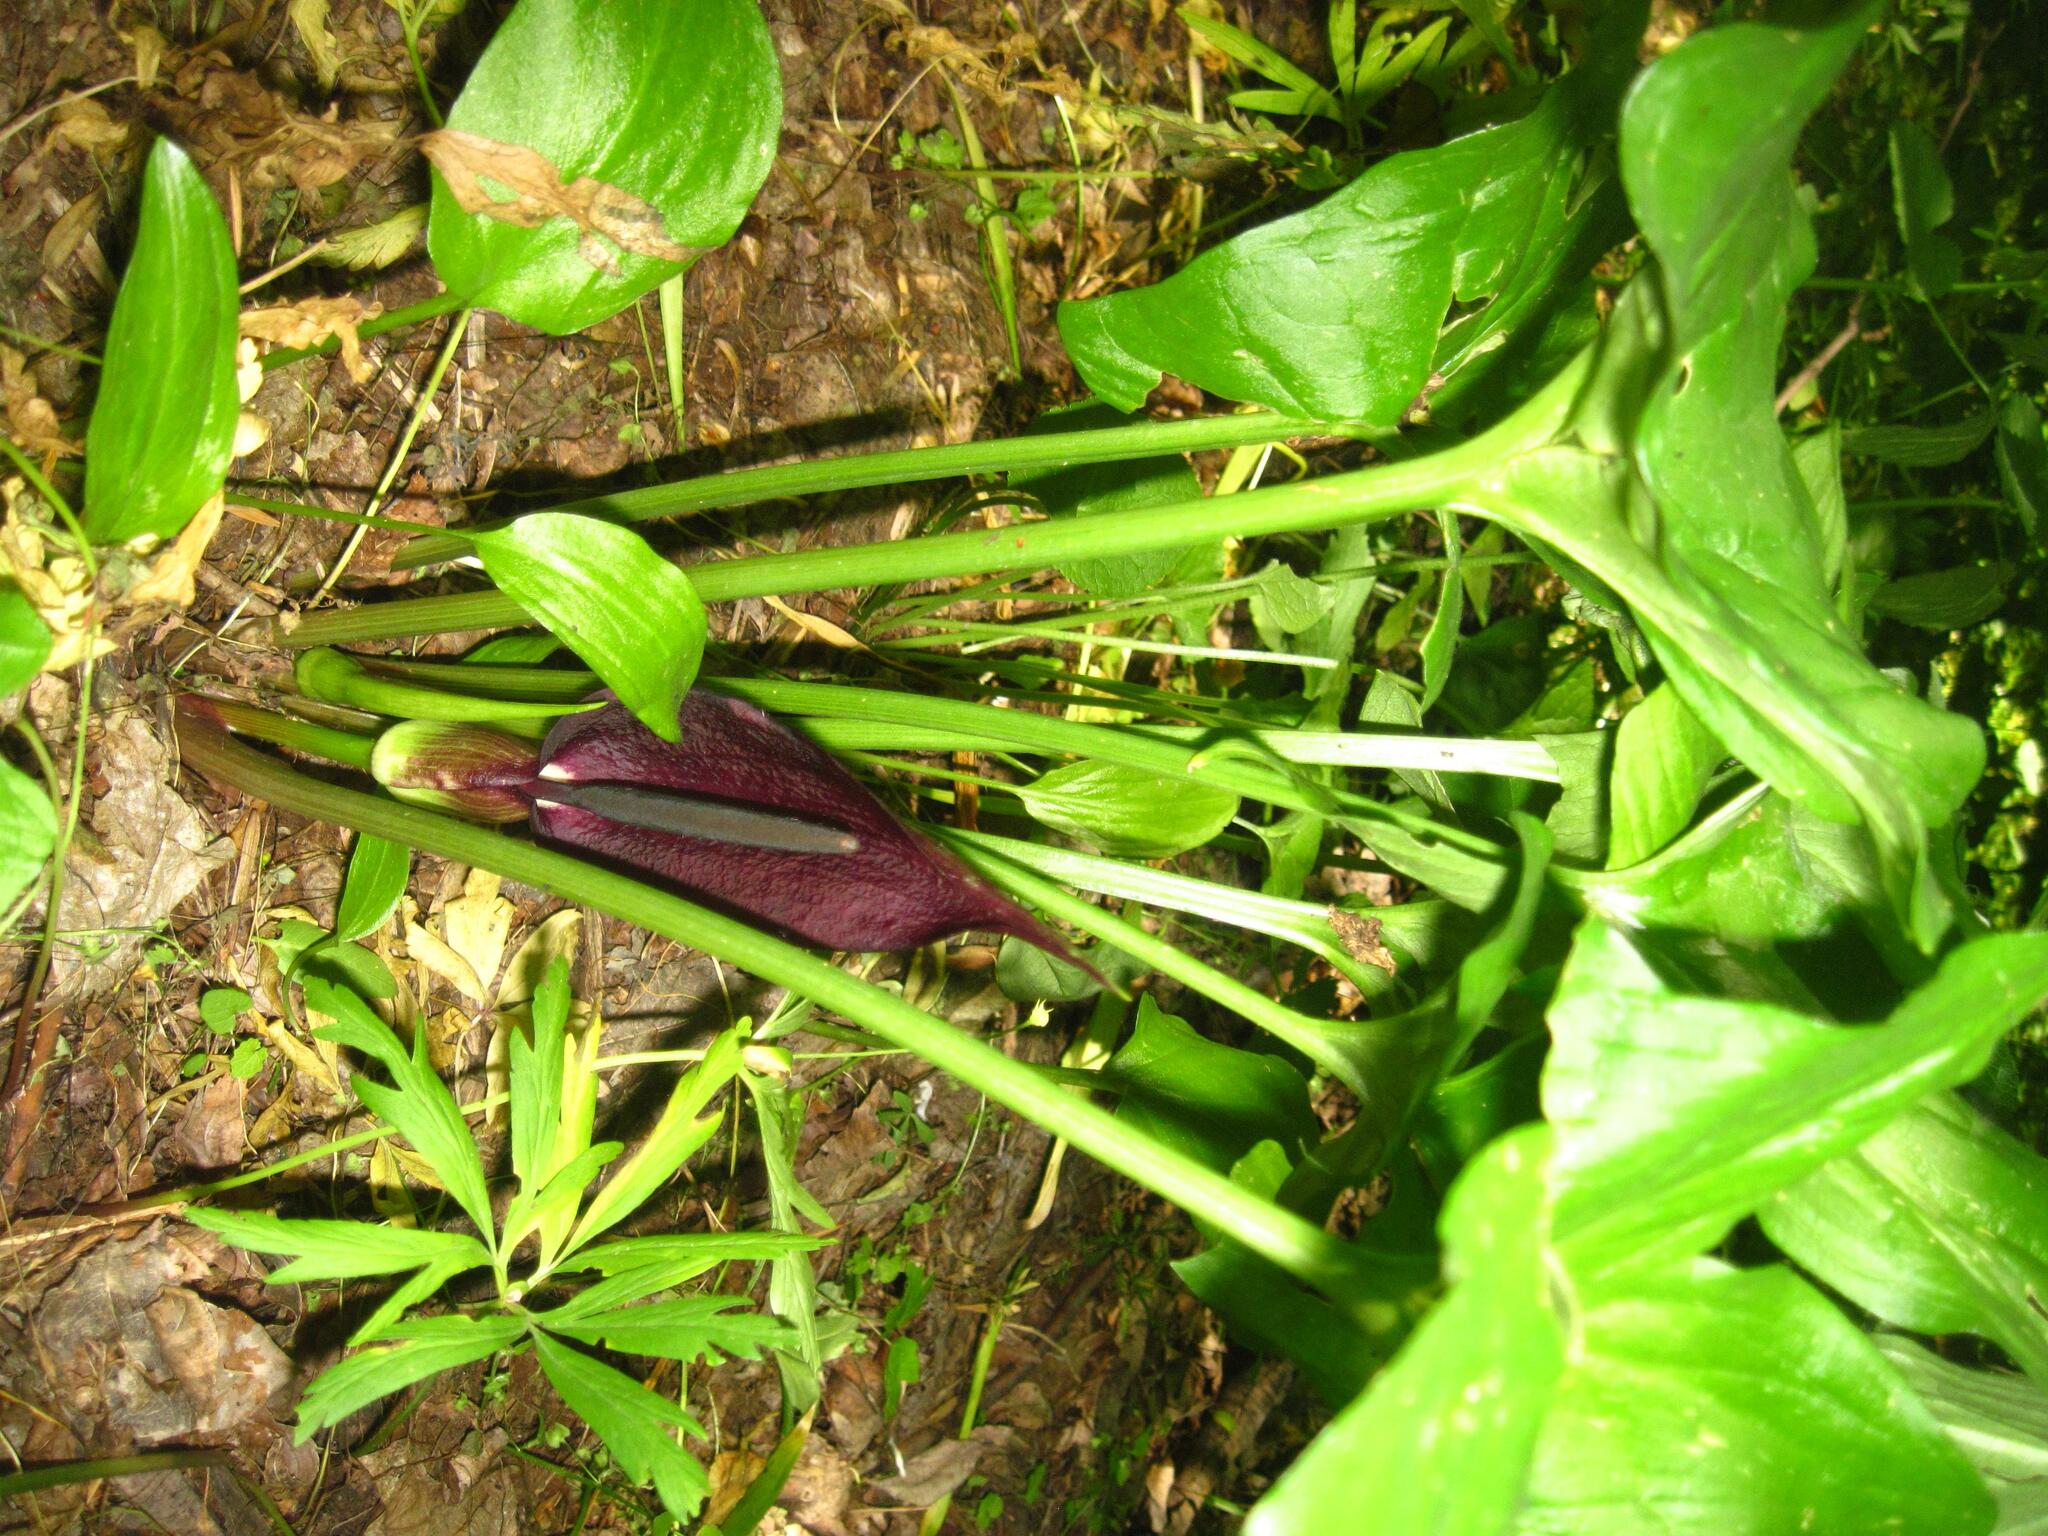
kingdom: Plantae
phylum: Tracheophyta
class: Liliopsida
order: Alismatales
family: Araceae
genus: Arum
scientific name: Arum orientale
